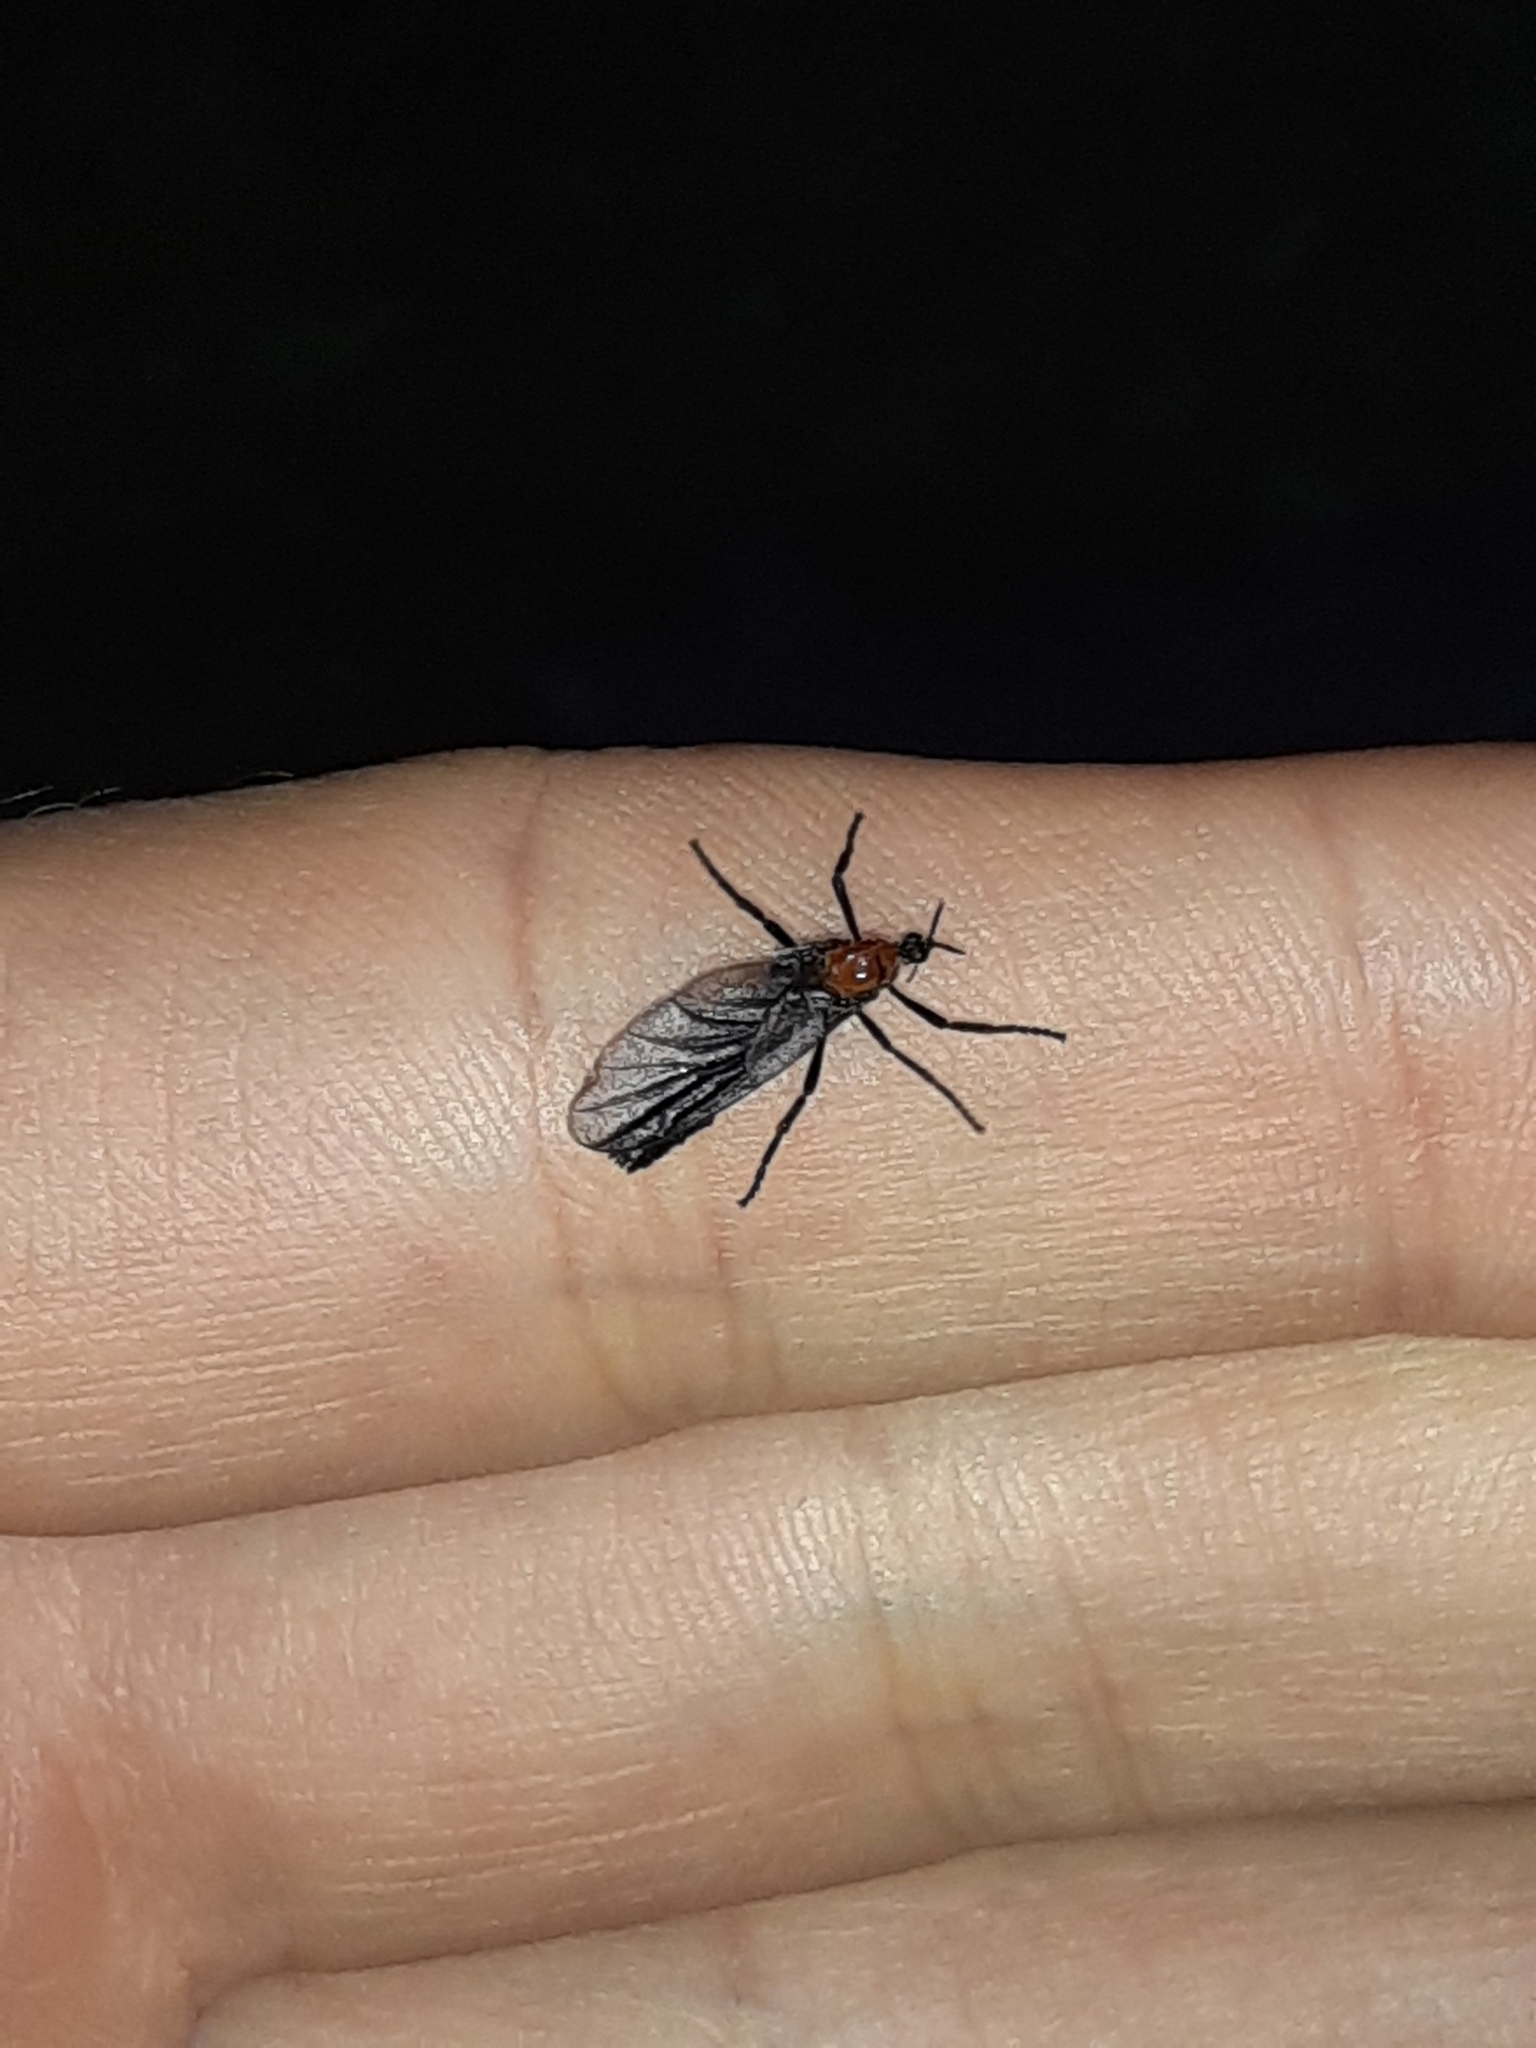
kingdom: Animalia
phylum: Arthropoda
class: Insecta
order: Diptera
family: Bibionidae
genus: Plecia
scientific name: Plecia nearctica
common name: March fly
